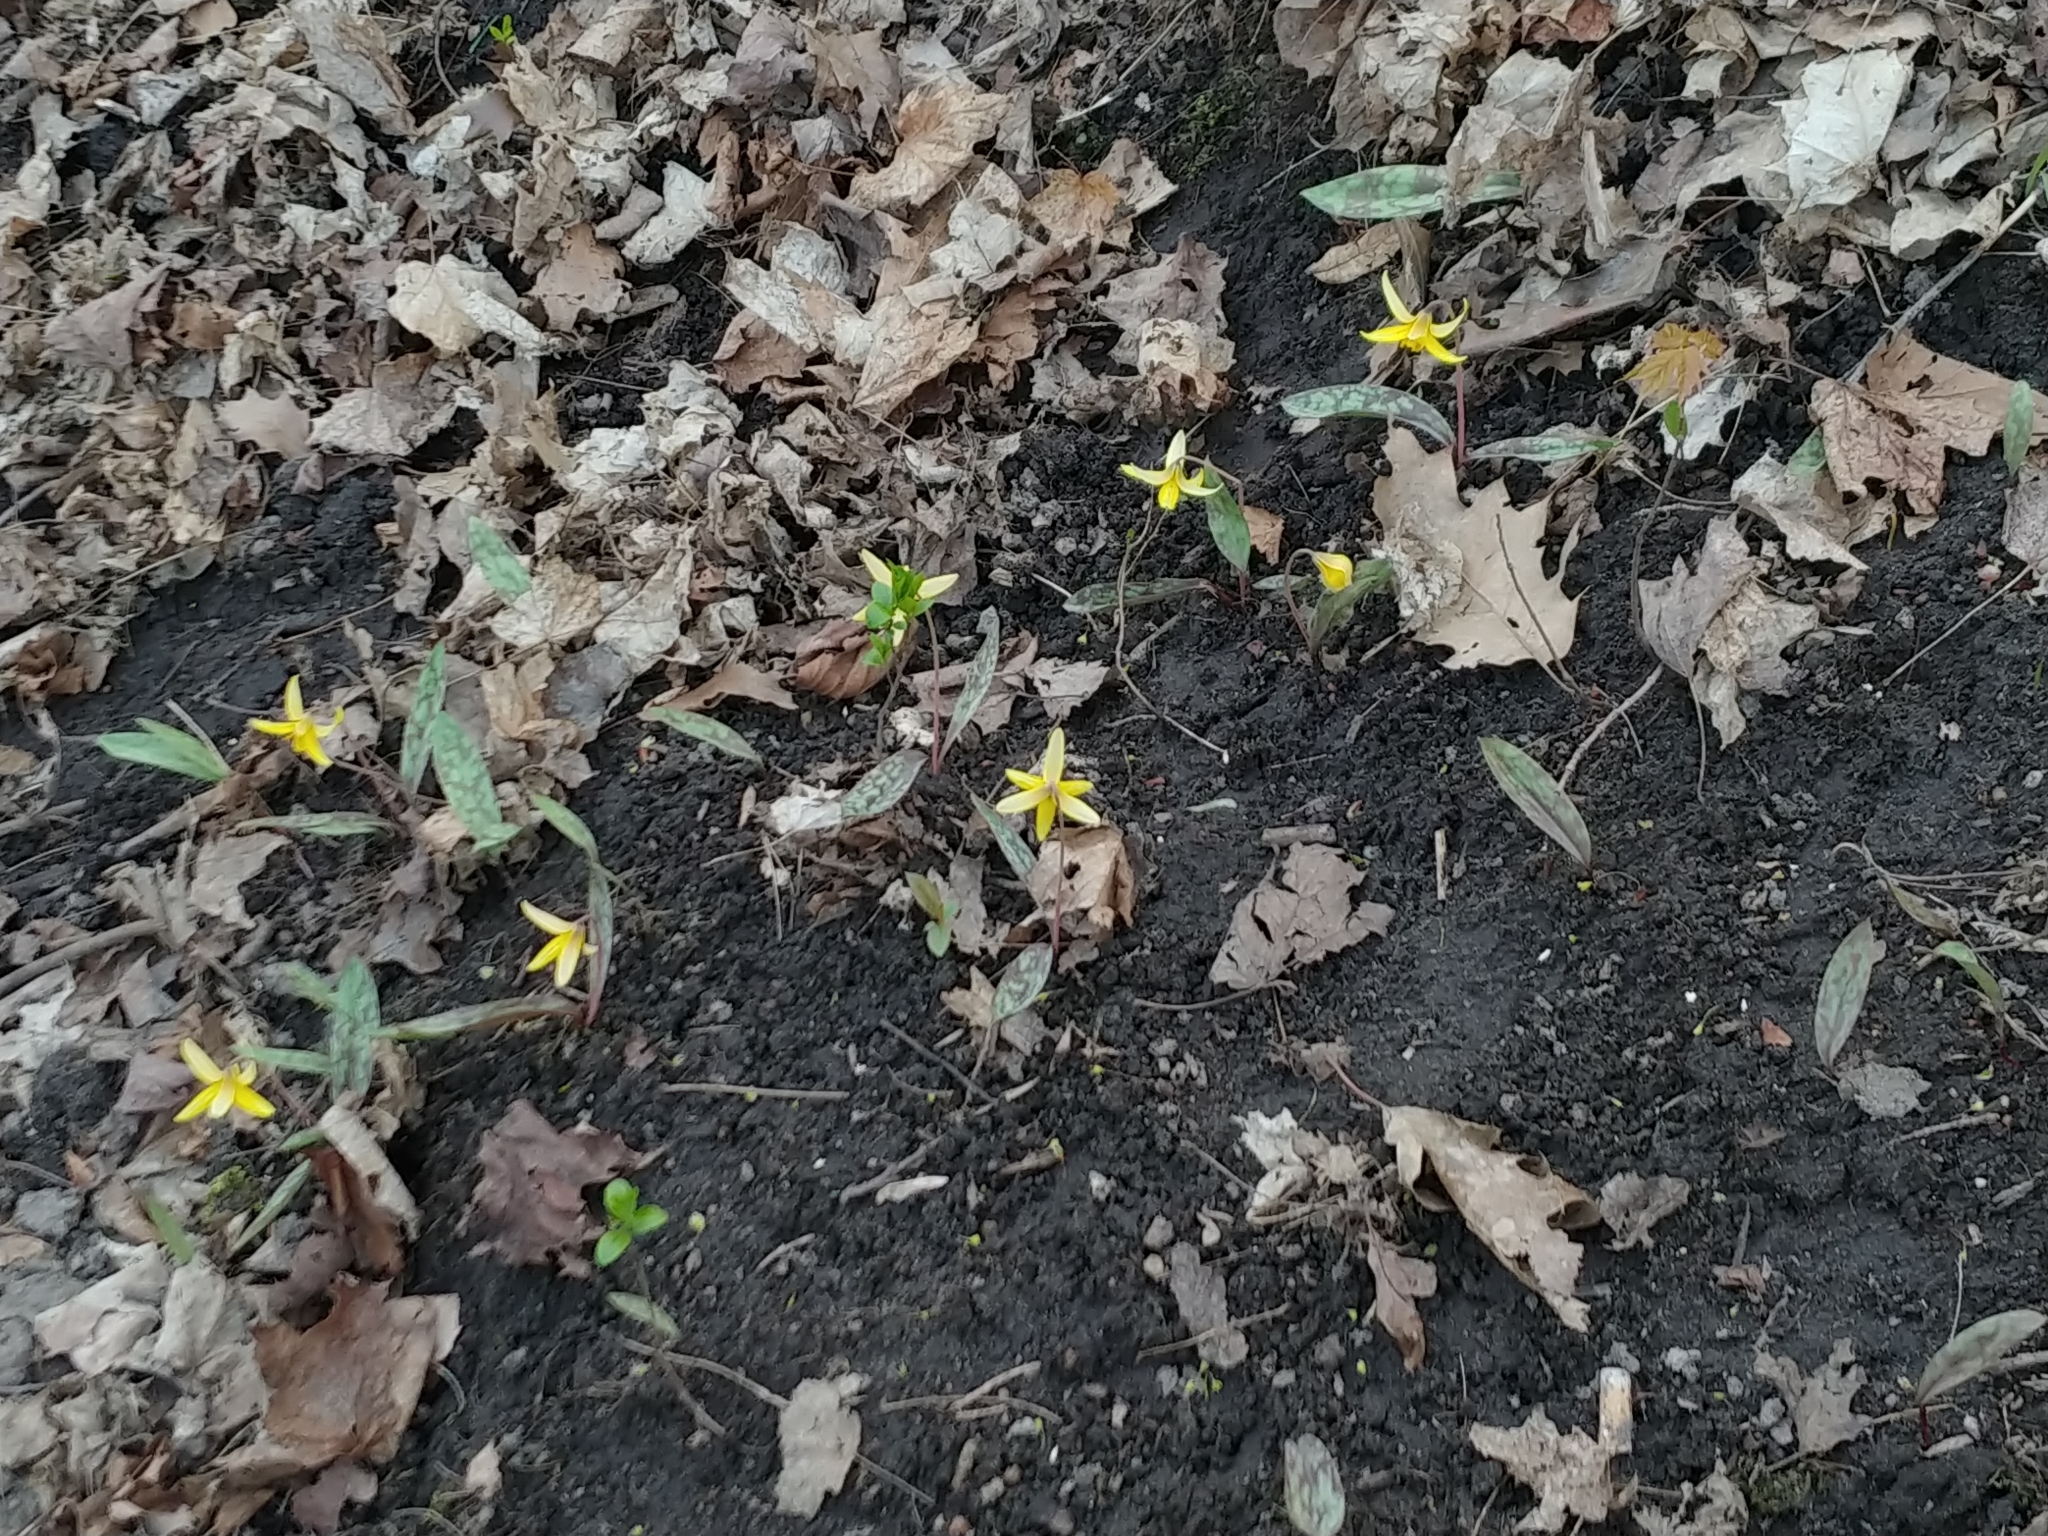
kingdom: Plantae
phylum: Tracheophyta
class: Liliopsida
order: Liliales
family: Liliaceae
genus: Erythronium
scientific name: Erythronium americanum
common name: Yellow adder's-tongue
